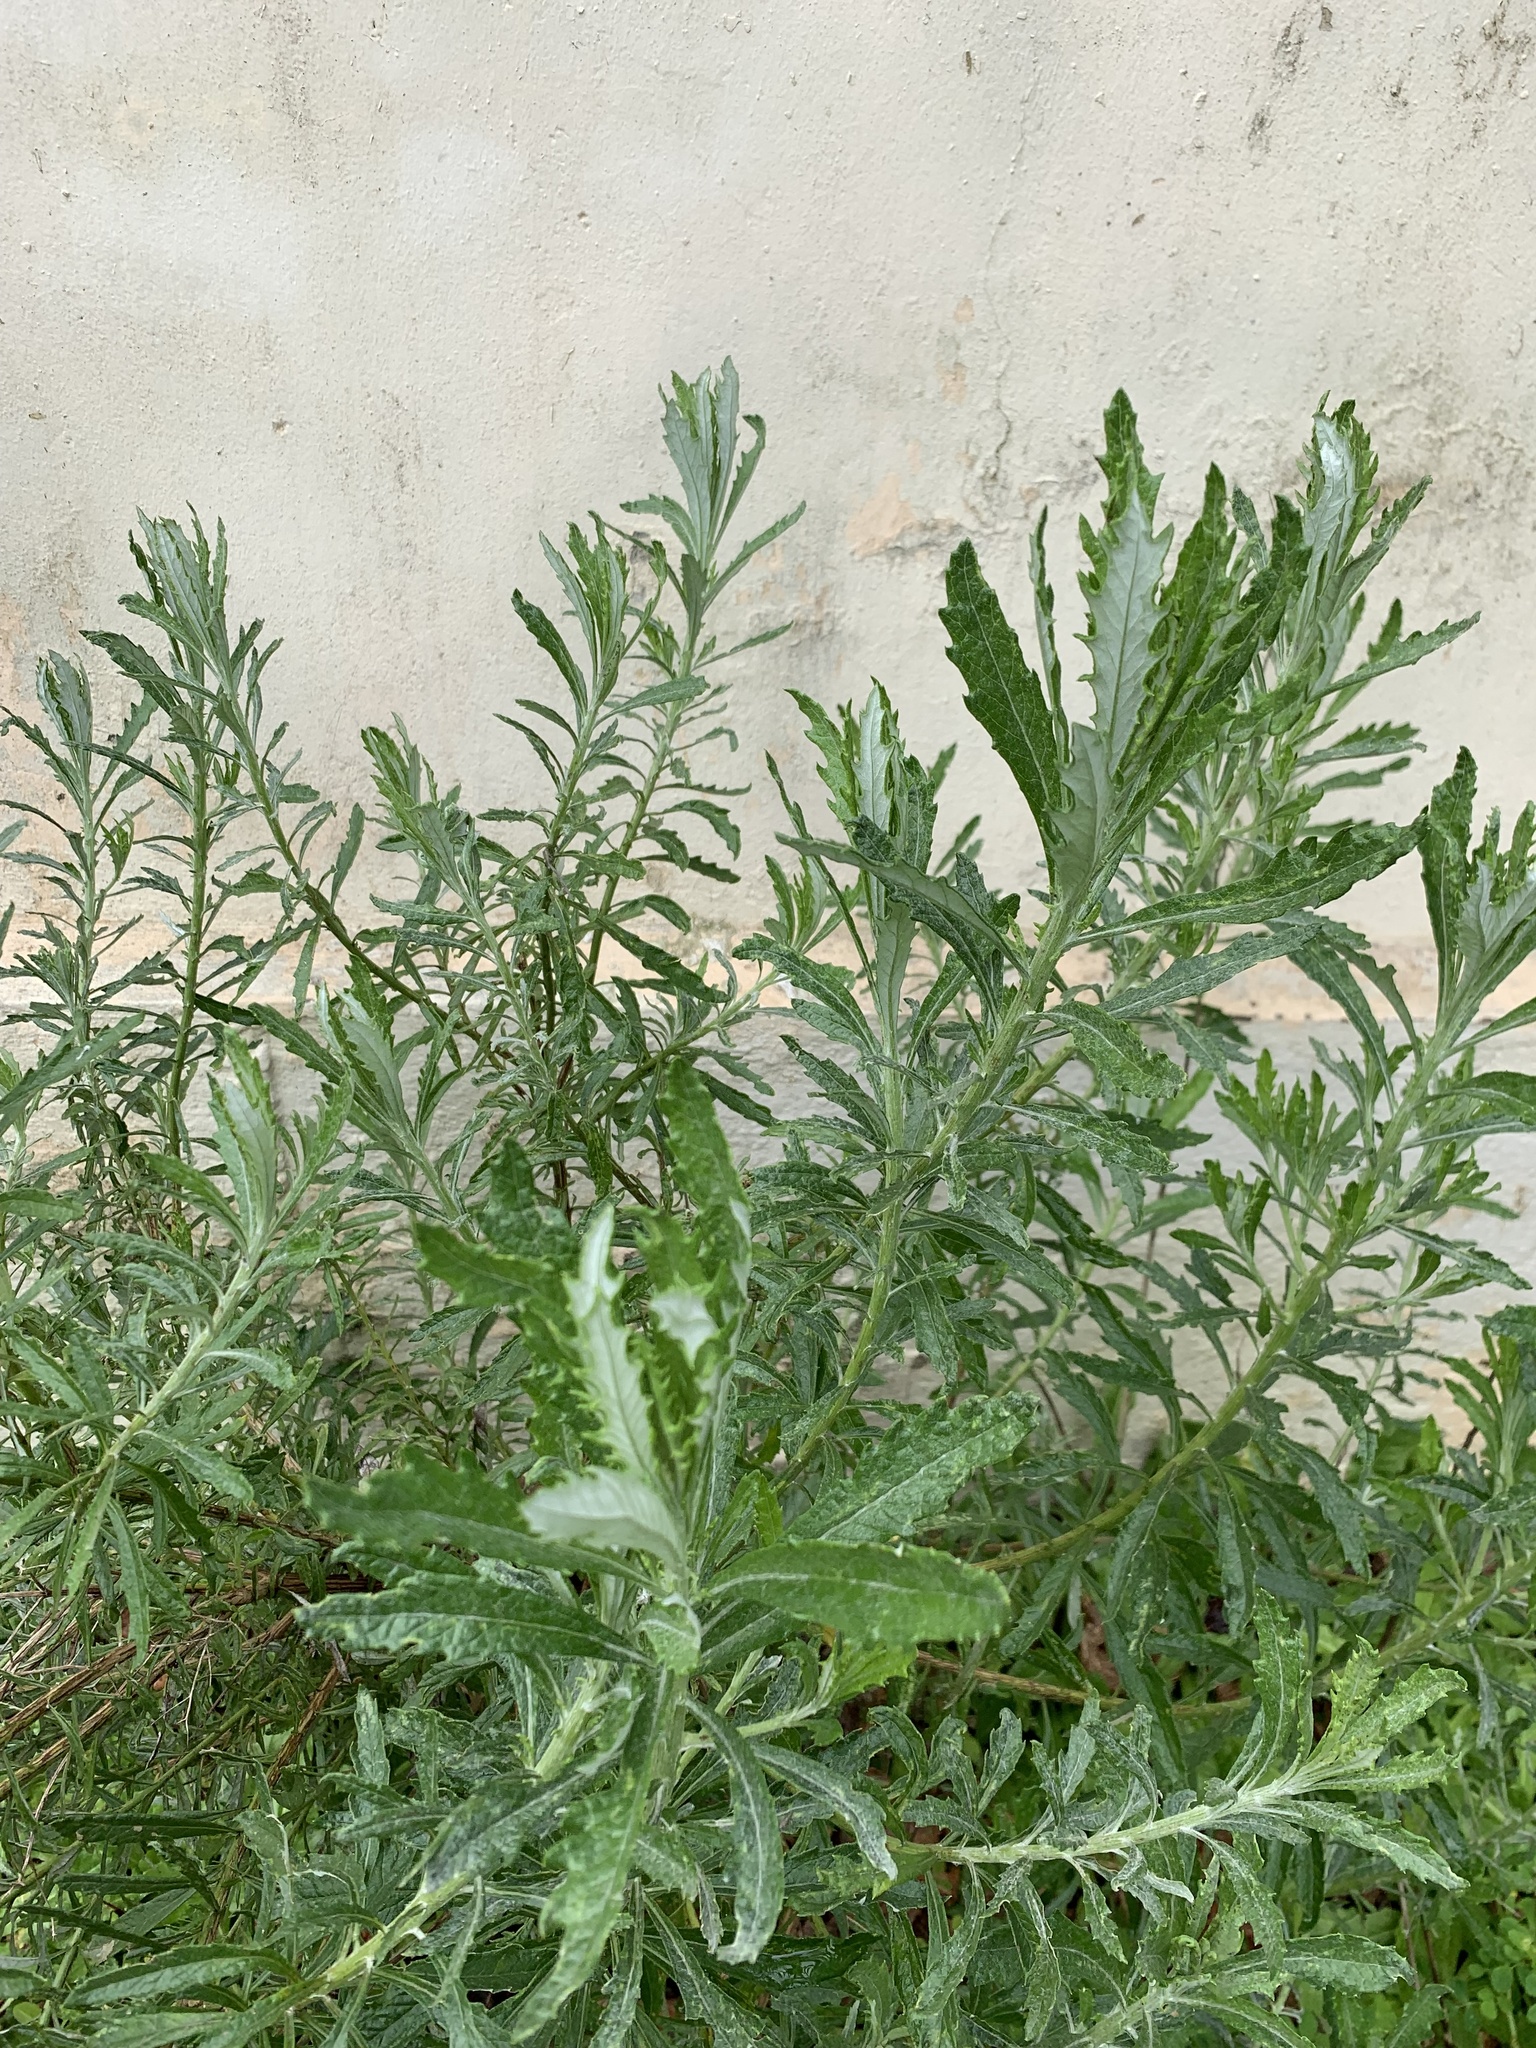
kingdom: Plantae
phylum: Tracheophyta
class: Magnoliopsida
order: Asterales
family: Asteraceae
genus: Senecio
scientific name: Senecio pterophorus
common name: Shoddy ragwort
